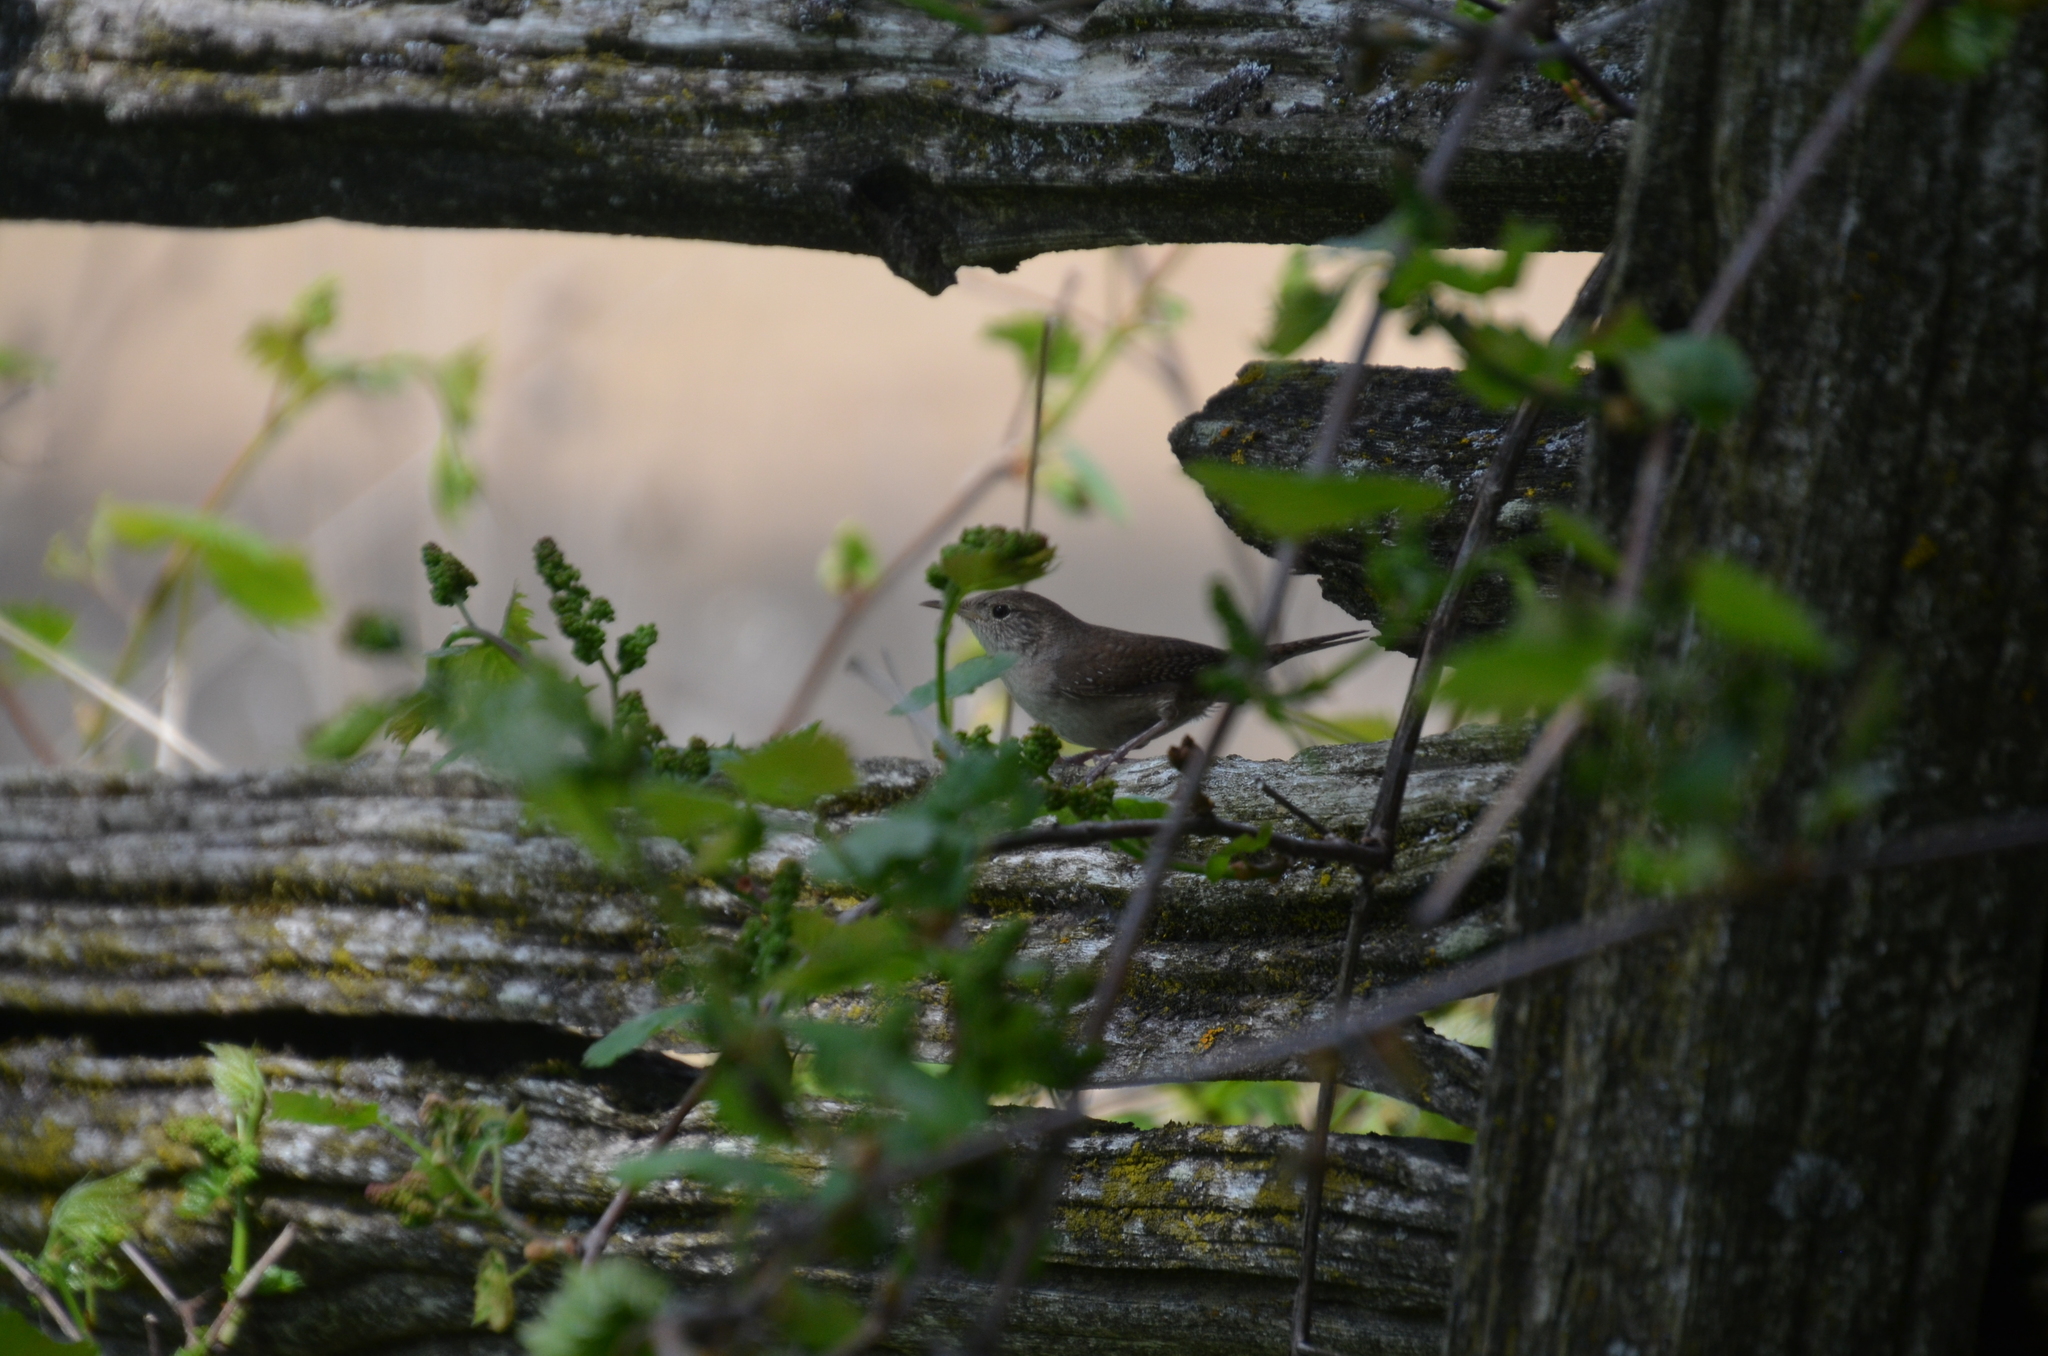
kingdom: Animalia
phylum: Chordata
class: Aves
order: Passeriformes
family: Troglodytidae
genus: Troglodytes
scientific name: Troglodytes aedon
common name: House wren
